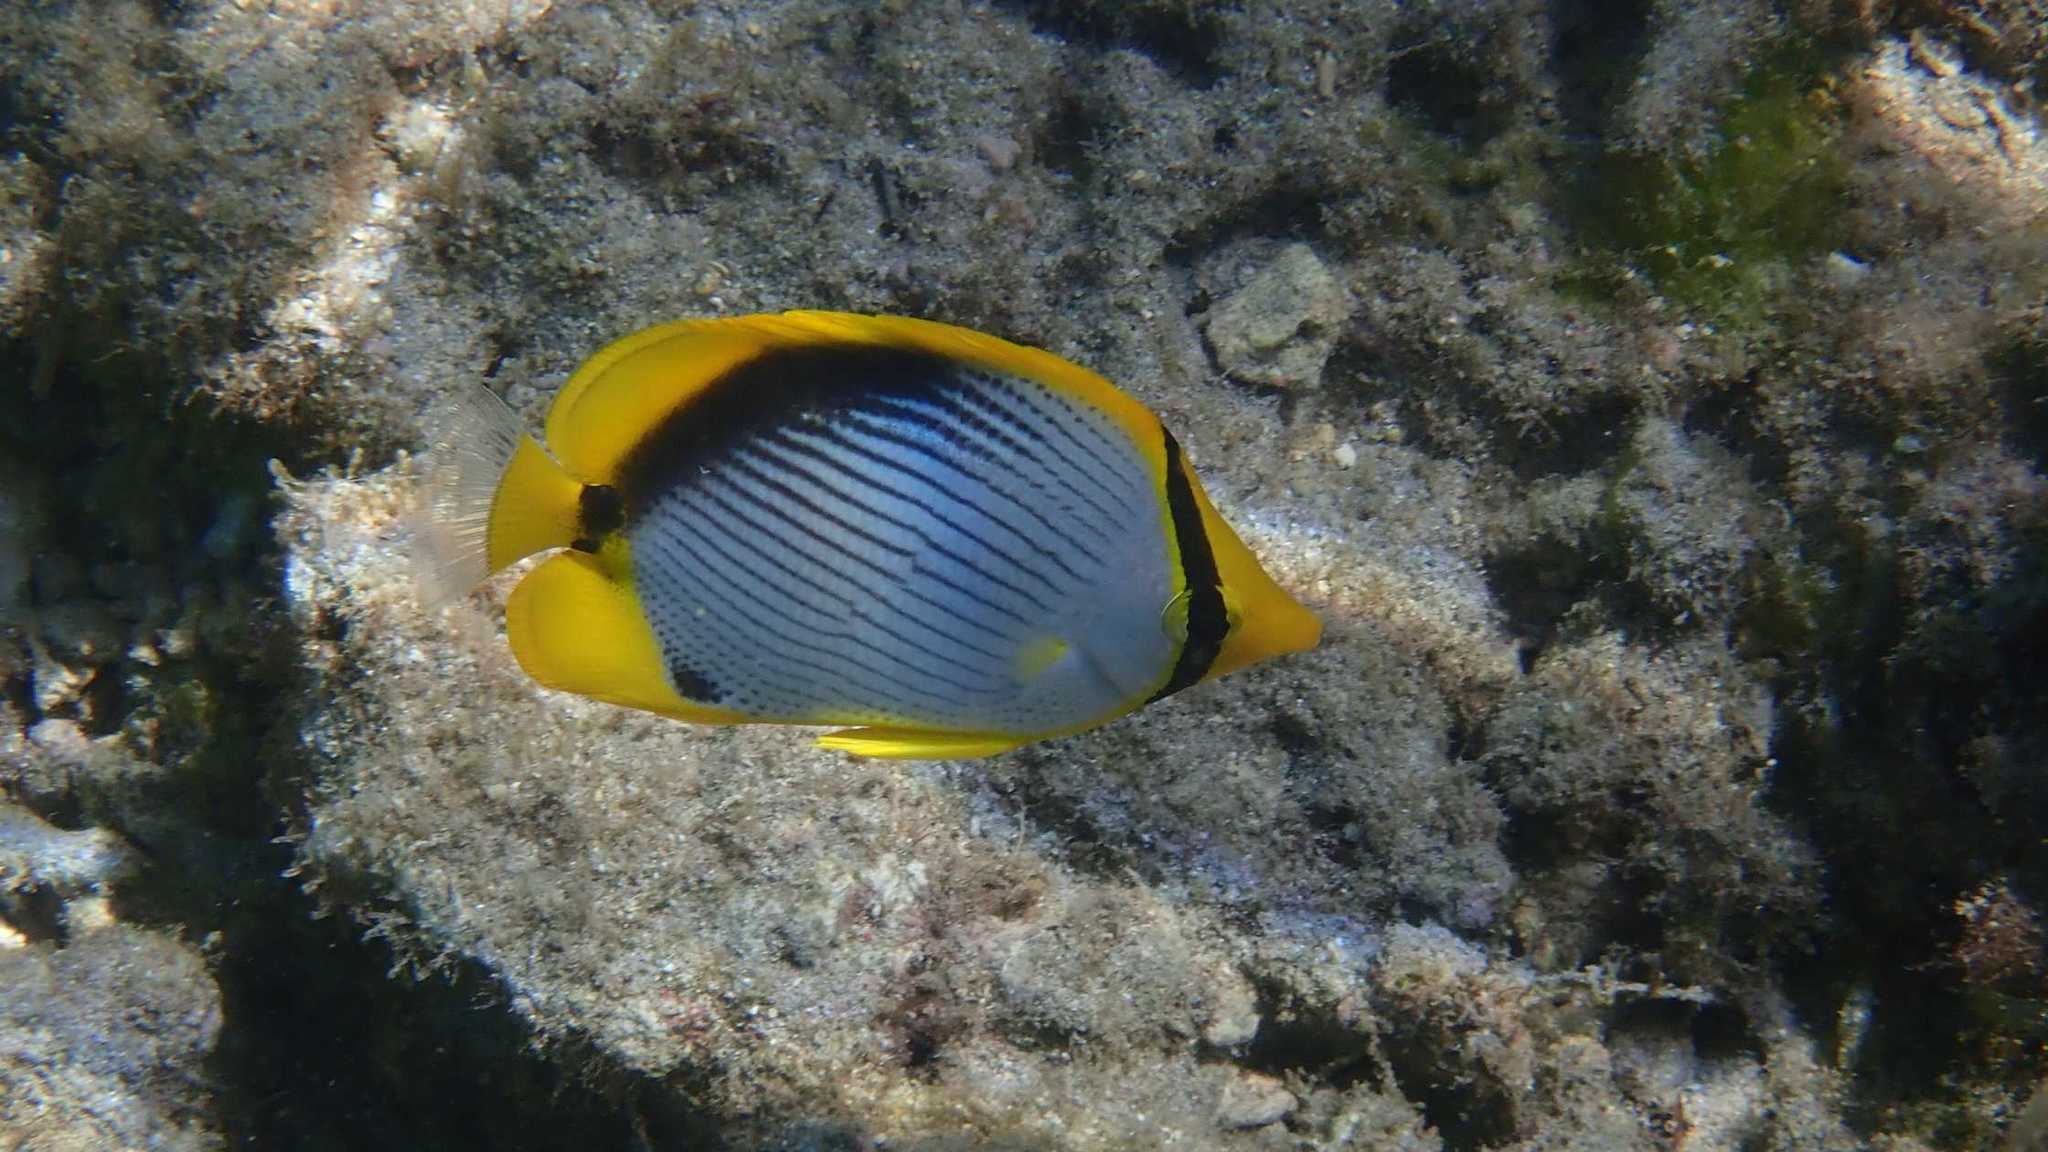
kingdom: Animalia
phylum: Chordata
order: Perciformes
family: Chaetodontidae
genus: Chaetodon
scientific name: Chaetodon melannotus
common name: Blackback butterflyfish
